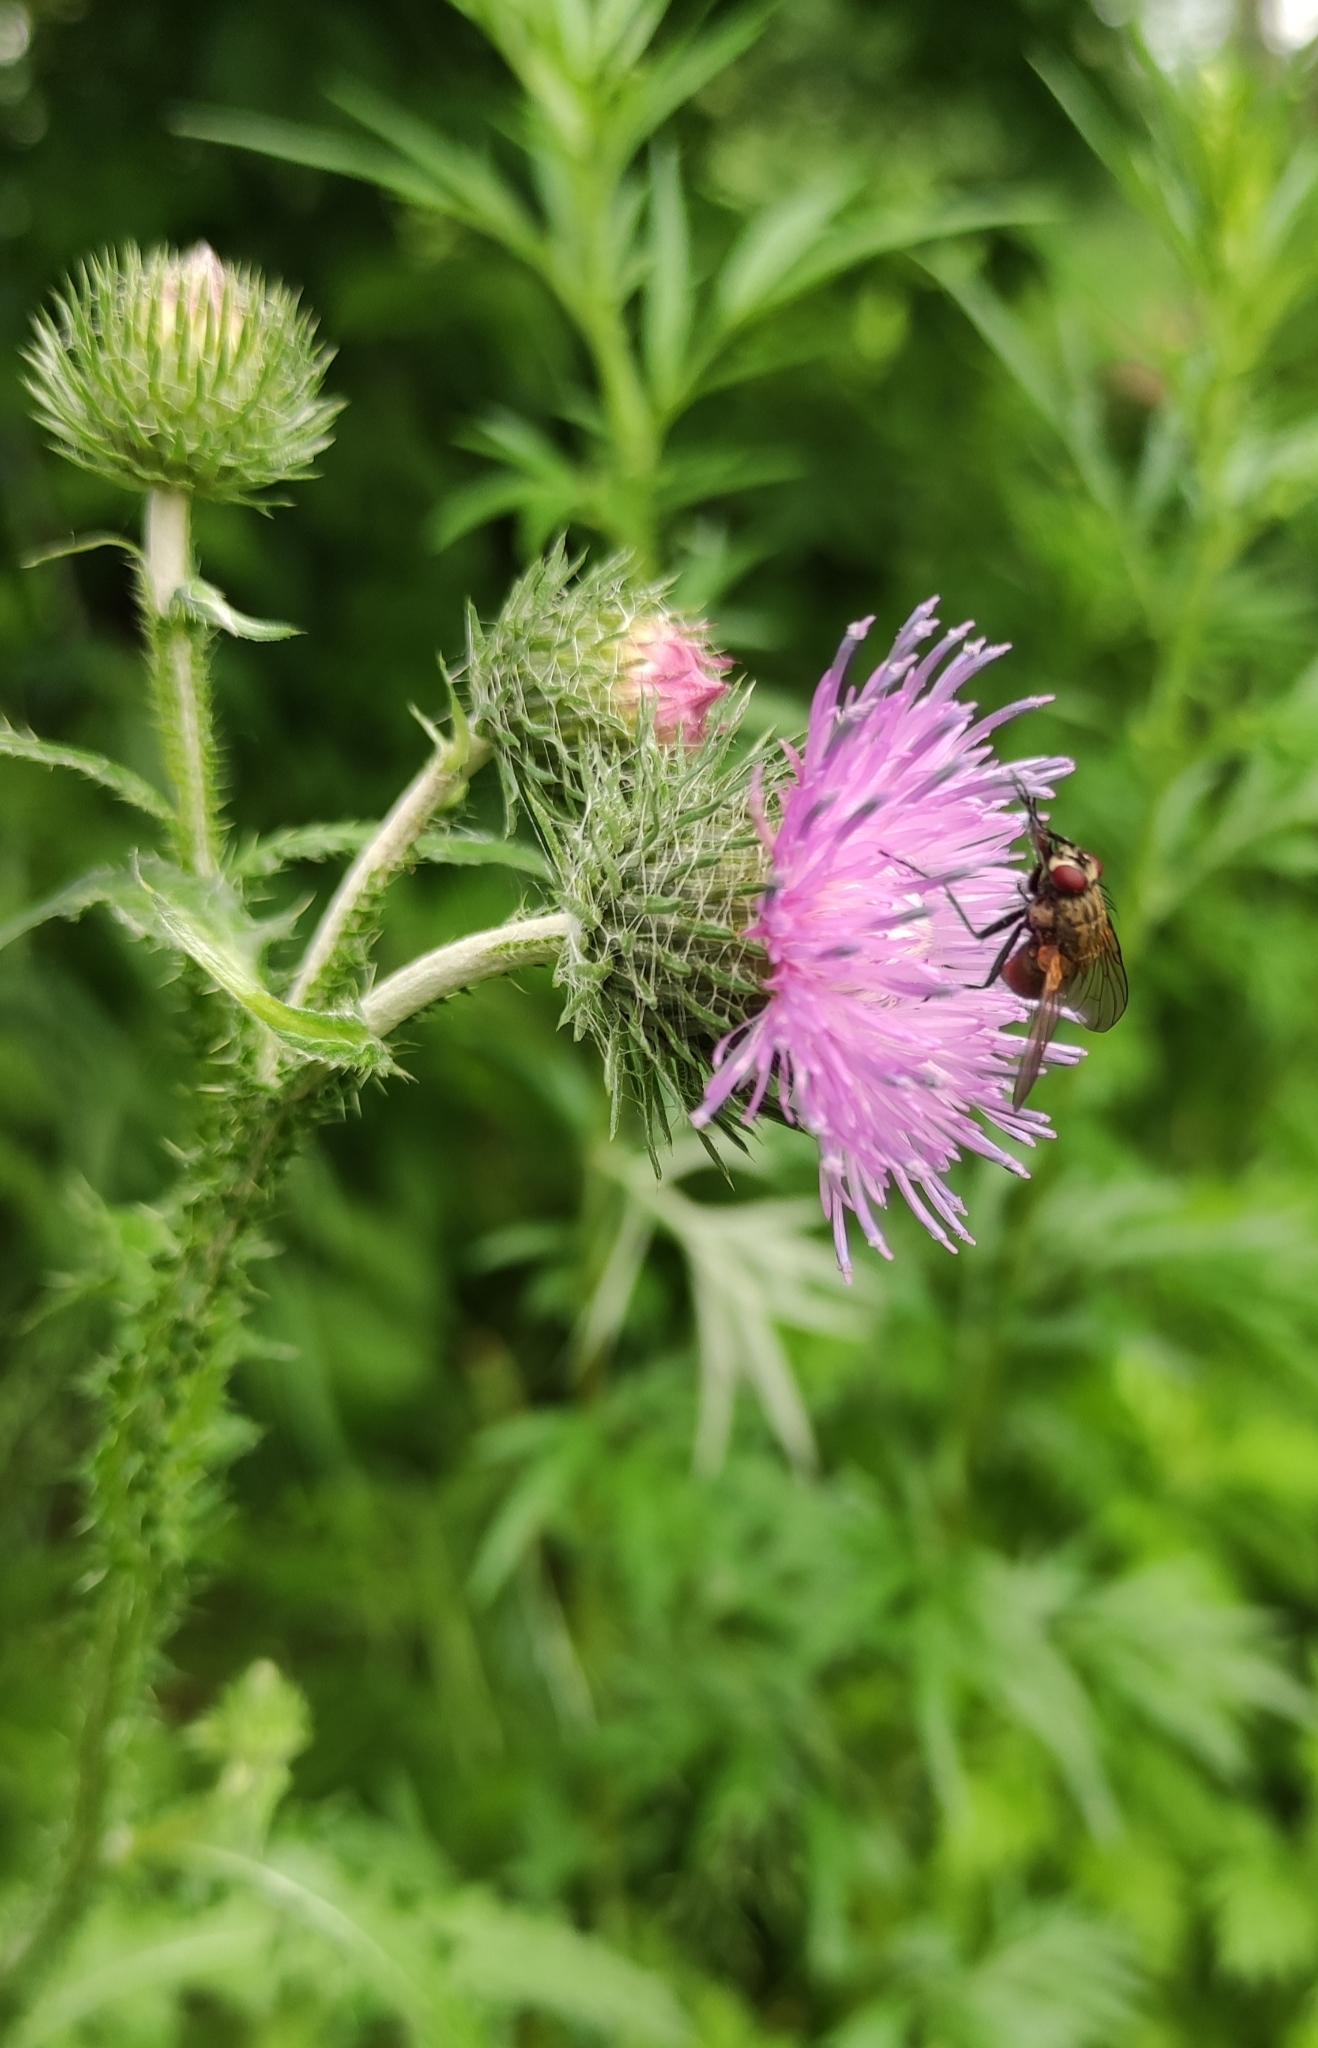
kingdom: Plantae
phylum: Tracheophyta
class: Magnoliopsida
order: Asterales
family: Asteraceae
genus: Carduus
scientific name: Carduus crispus
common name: Welted thistle
